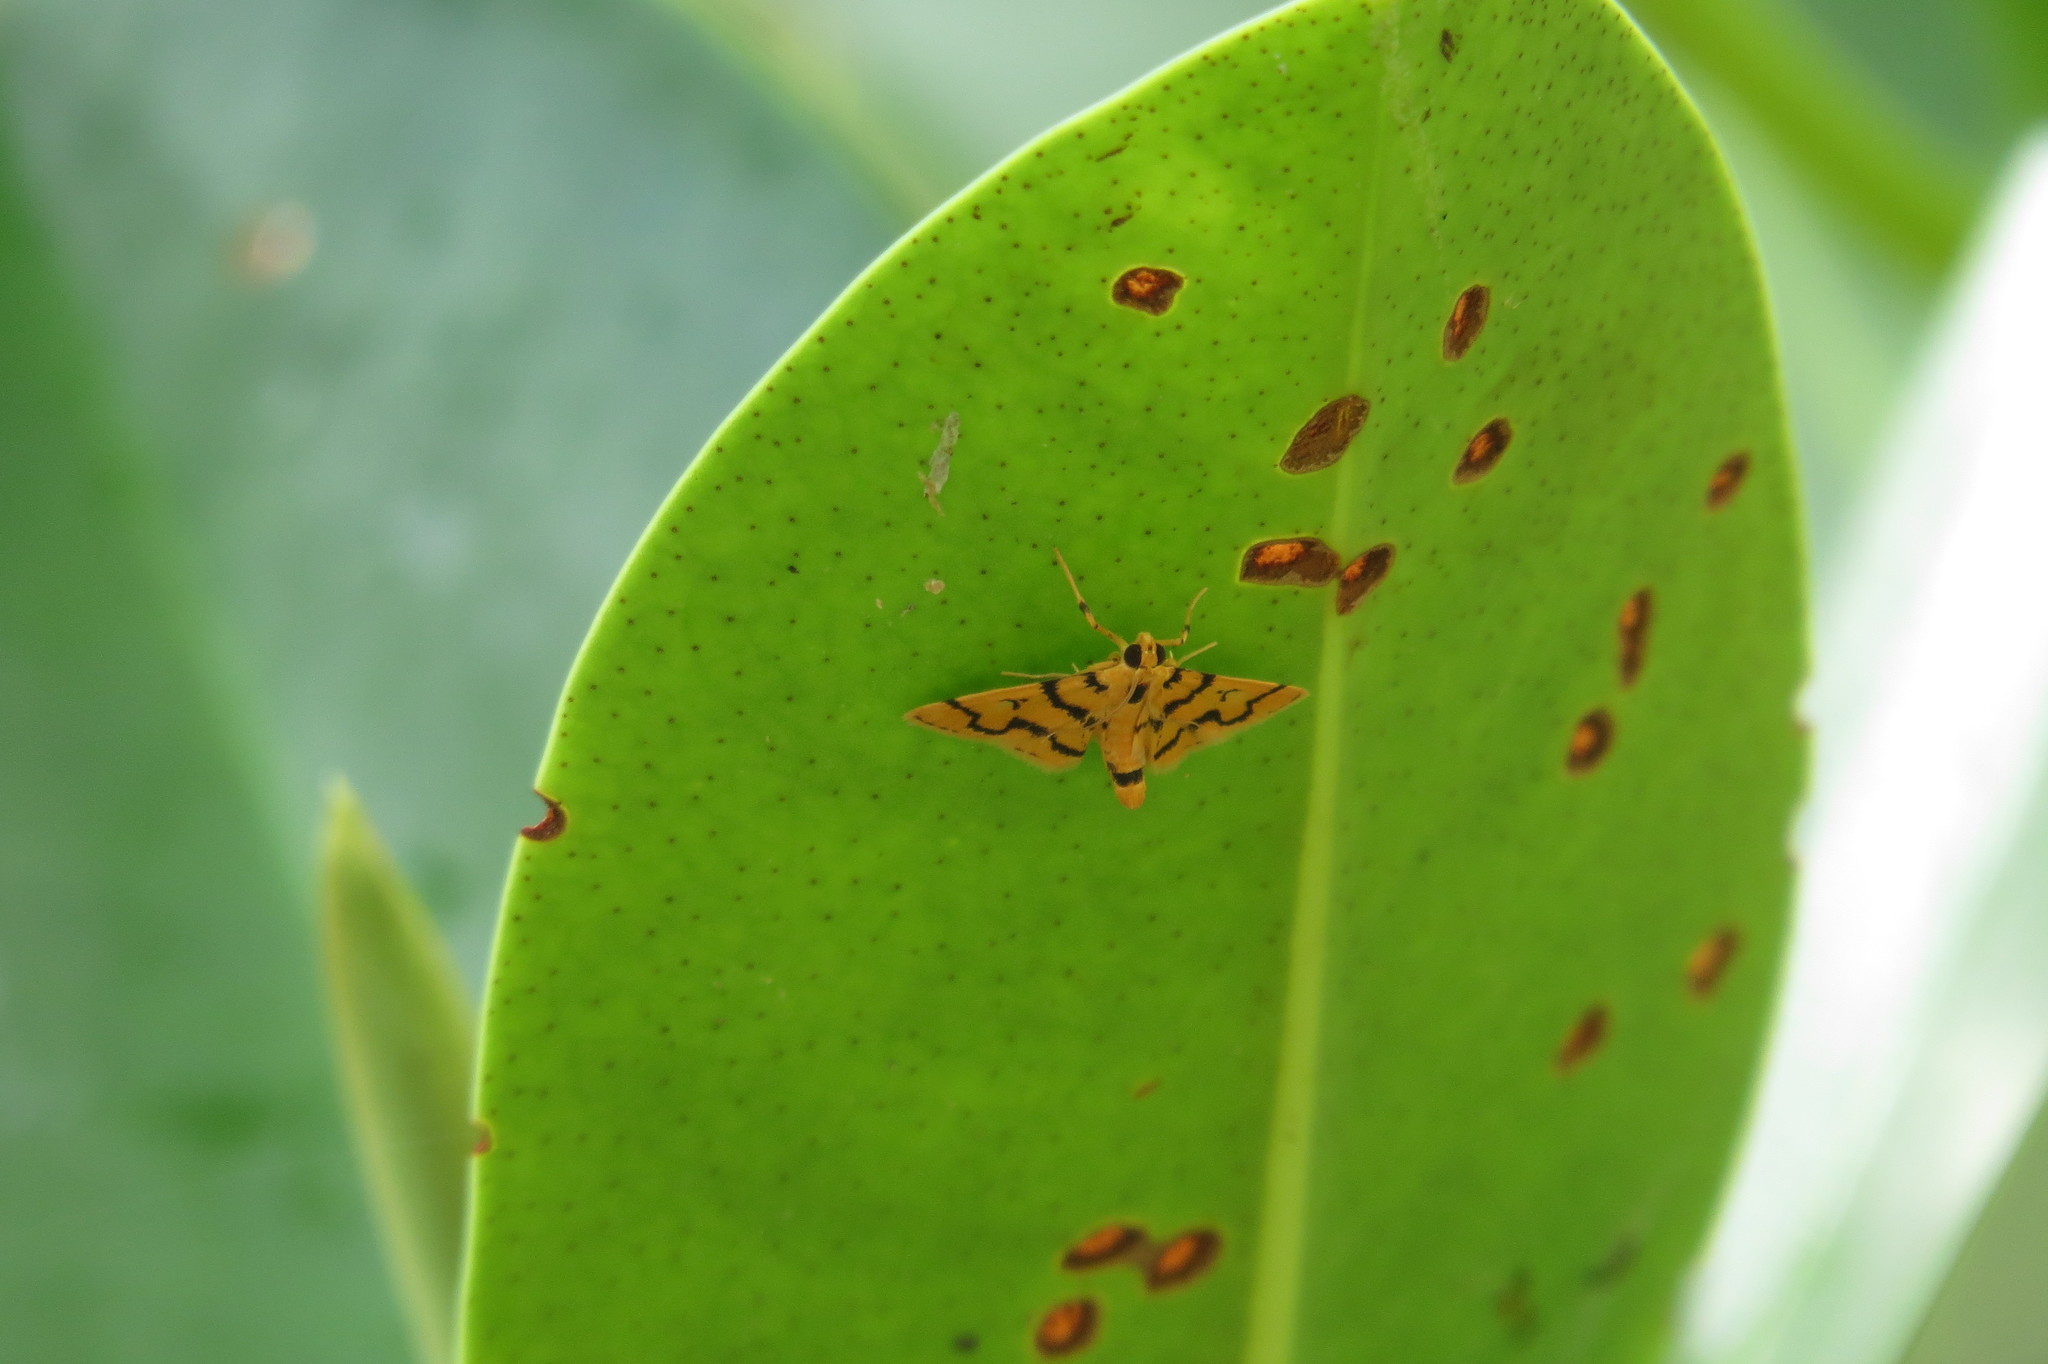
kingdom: Animalia
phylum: Arthropoda
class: Insecta
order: Lepidoptera
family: Crambidae
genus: Dichocrocis
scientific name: Dichocrocis erixantha
